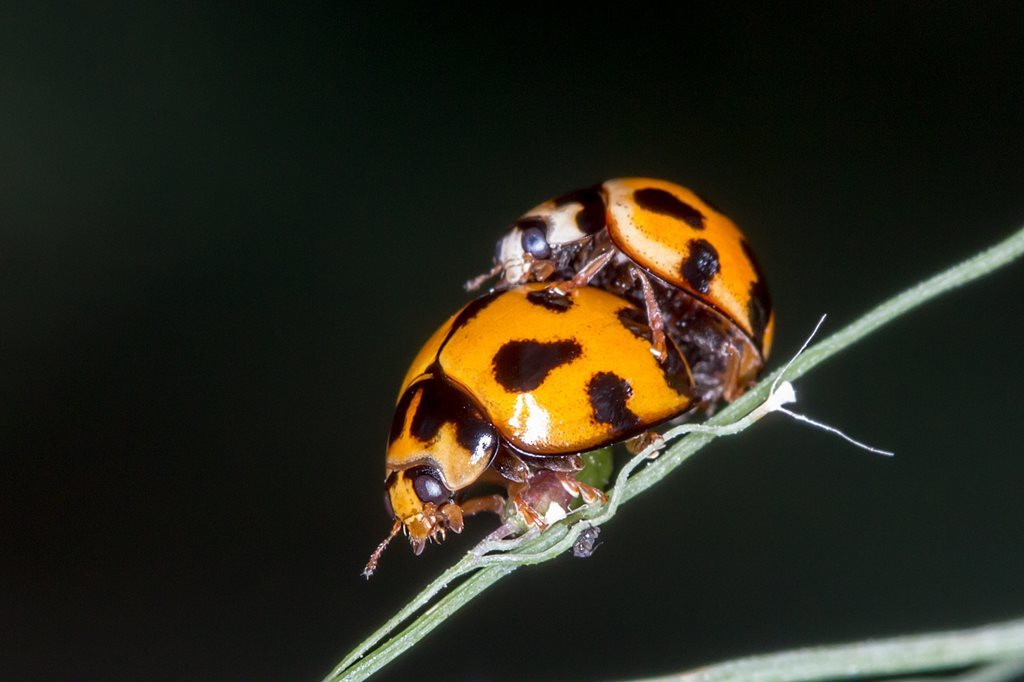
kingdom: Animalia
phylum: Arthropoda
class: Insecta
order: Coleoptera
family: Coccinellidae
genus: Coelophora
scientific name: Coelophora inaequalis
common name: Common australian lady beetle
